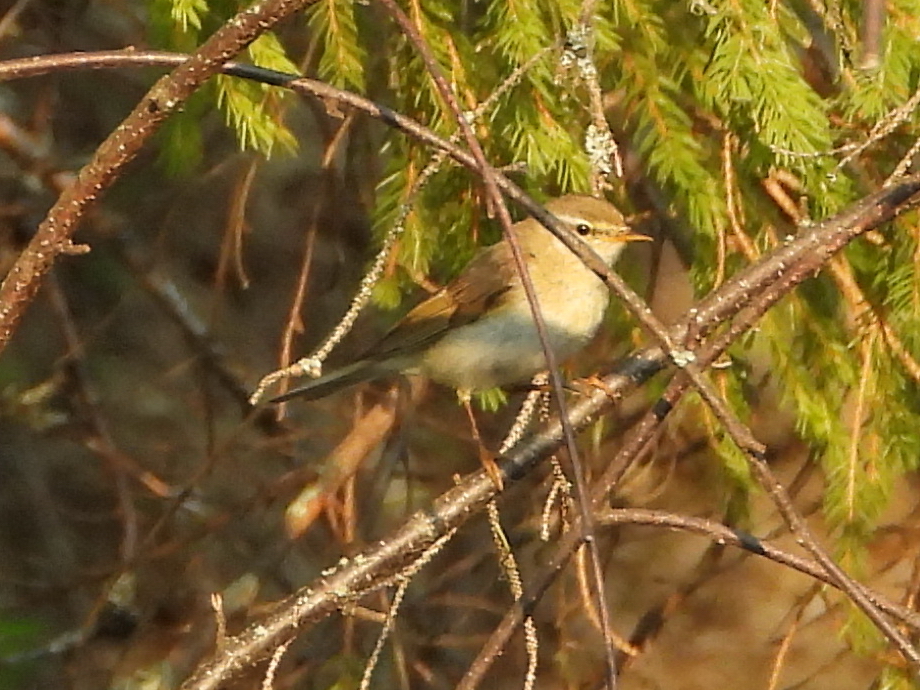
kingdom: Animalia
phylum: Chordata
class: Aves
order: Passeriformes
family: Phylloscopidae
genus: Phylloscopus
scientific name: Phylloscopus trochilus
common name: Willow warbler
